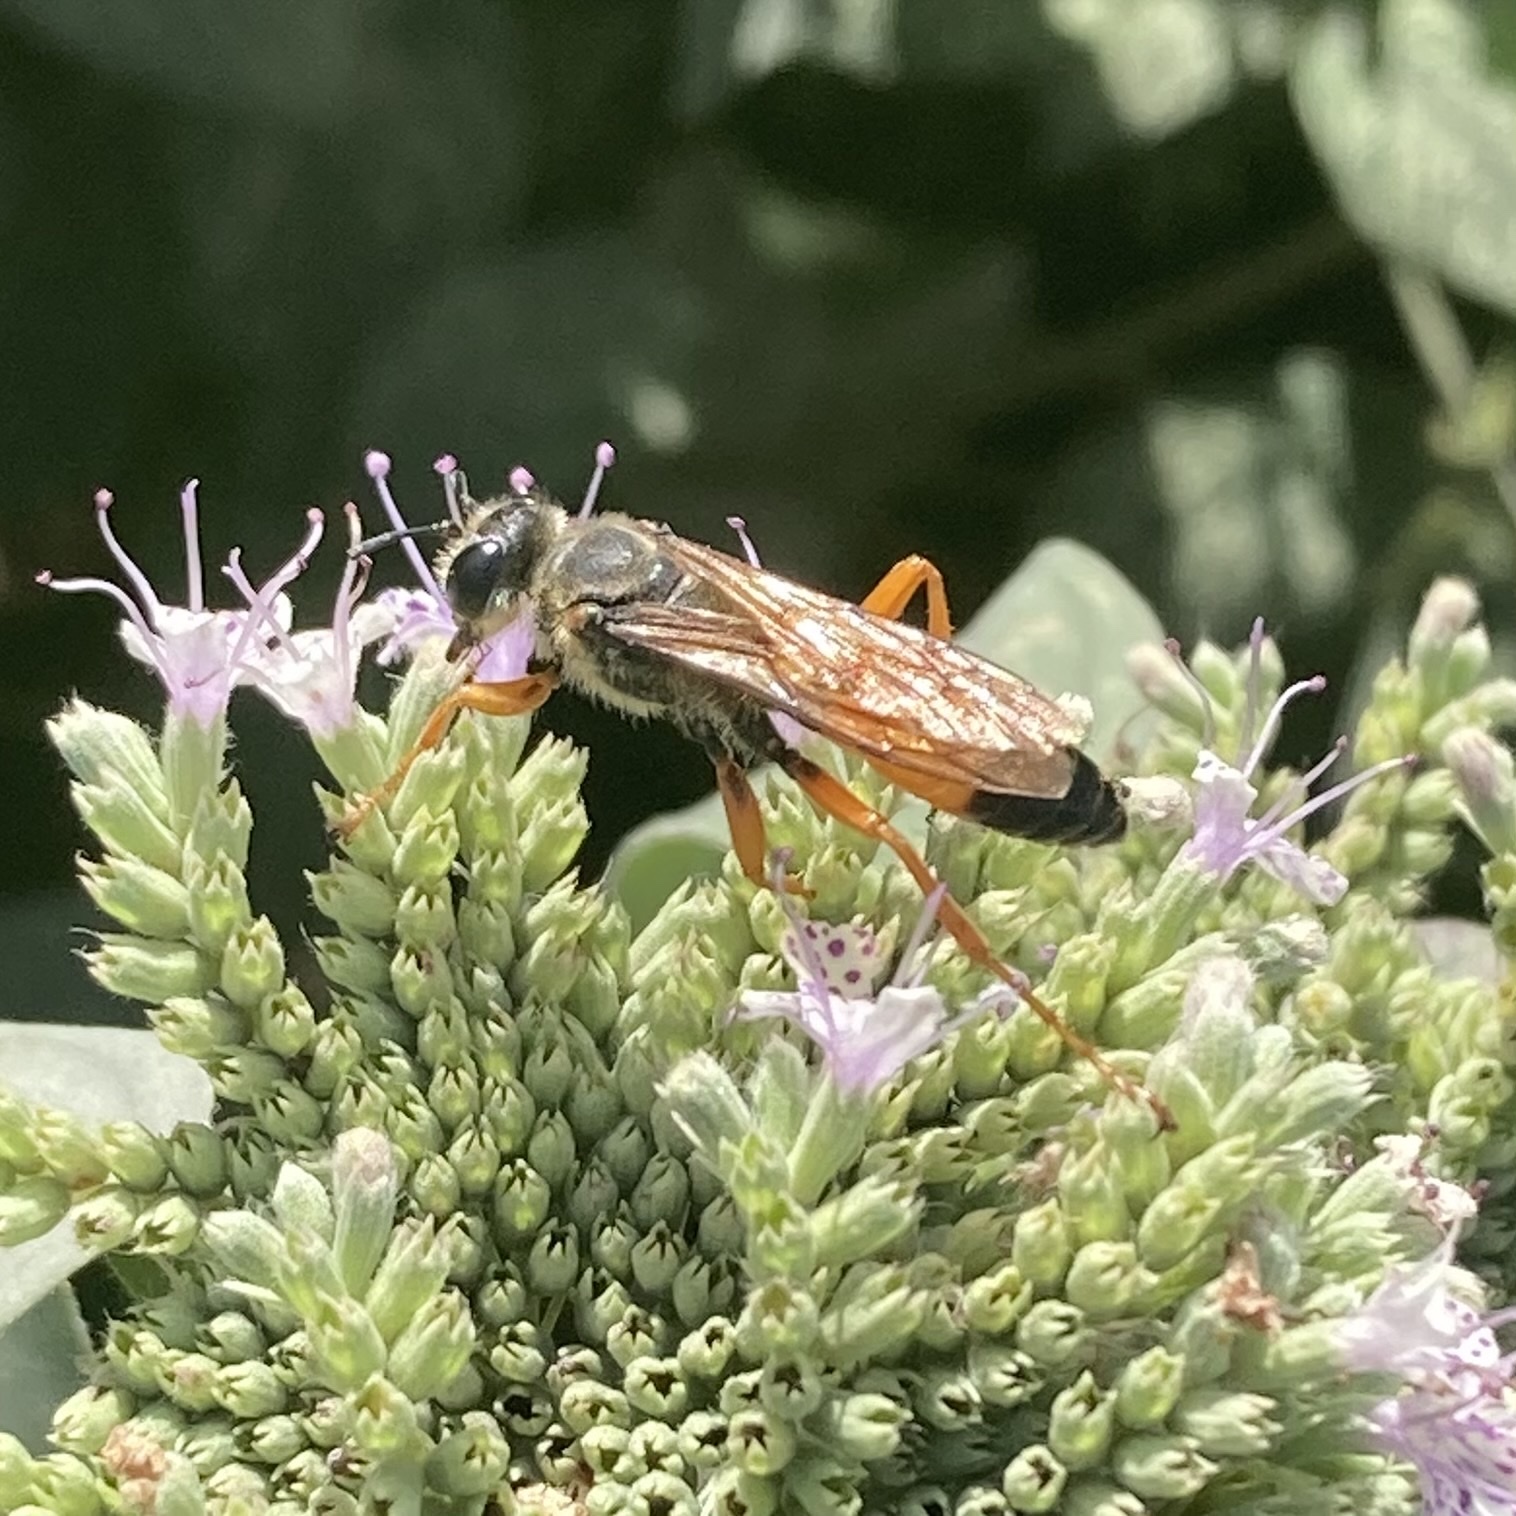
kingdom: Animalia
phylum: Arthropoda
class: Insecta
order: Hymenoptera
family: Sphecidae
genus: Sphex
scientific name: Sphex ichneumoneus
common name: Great golden digger wasp
